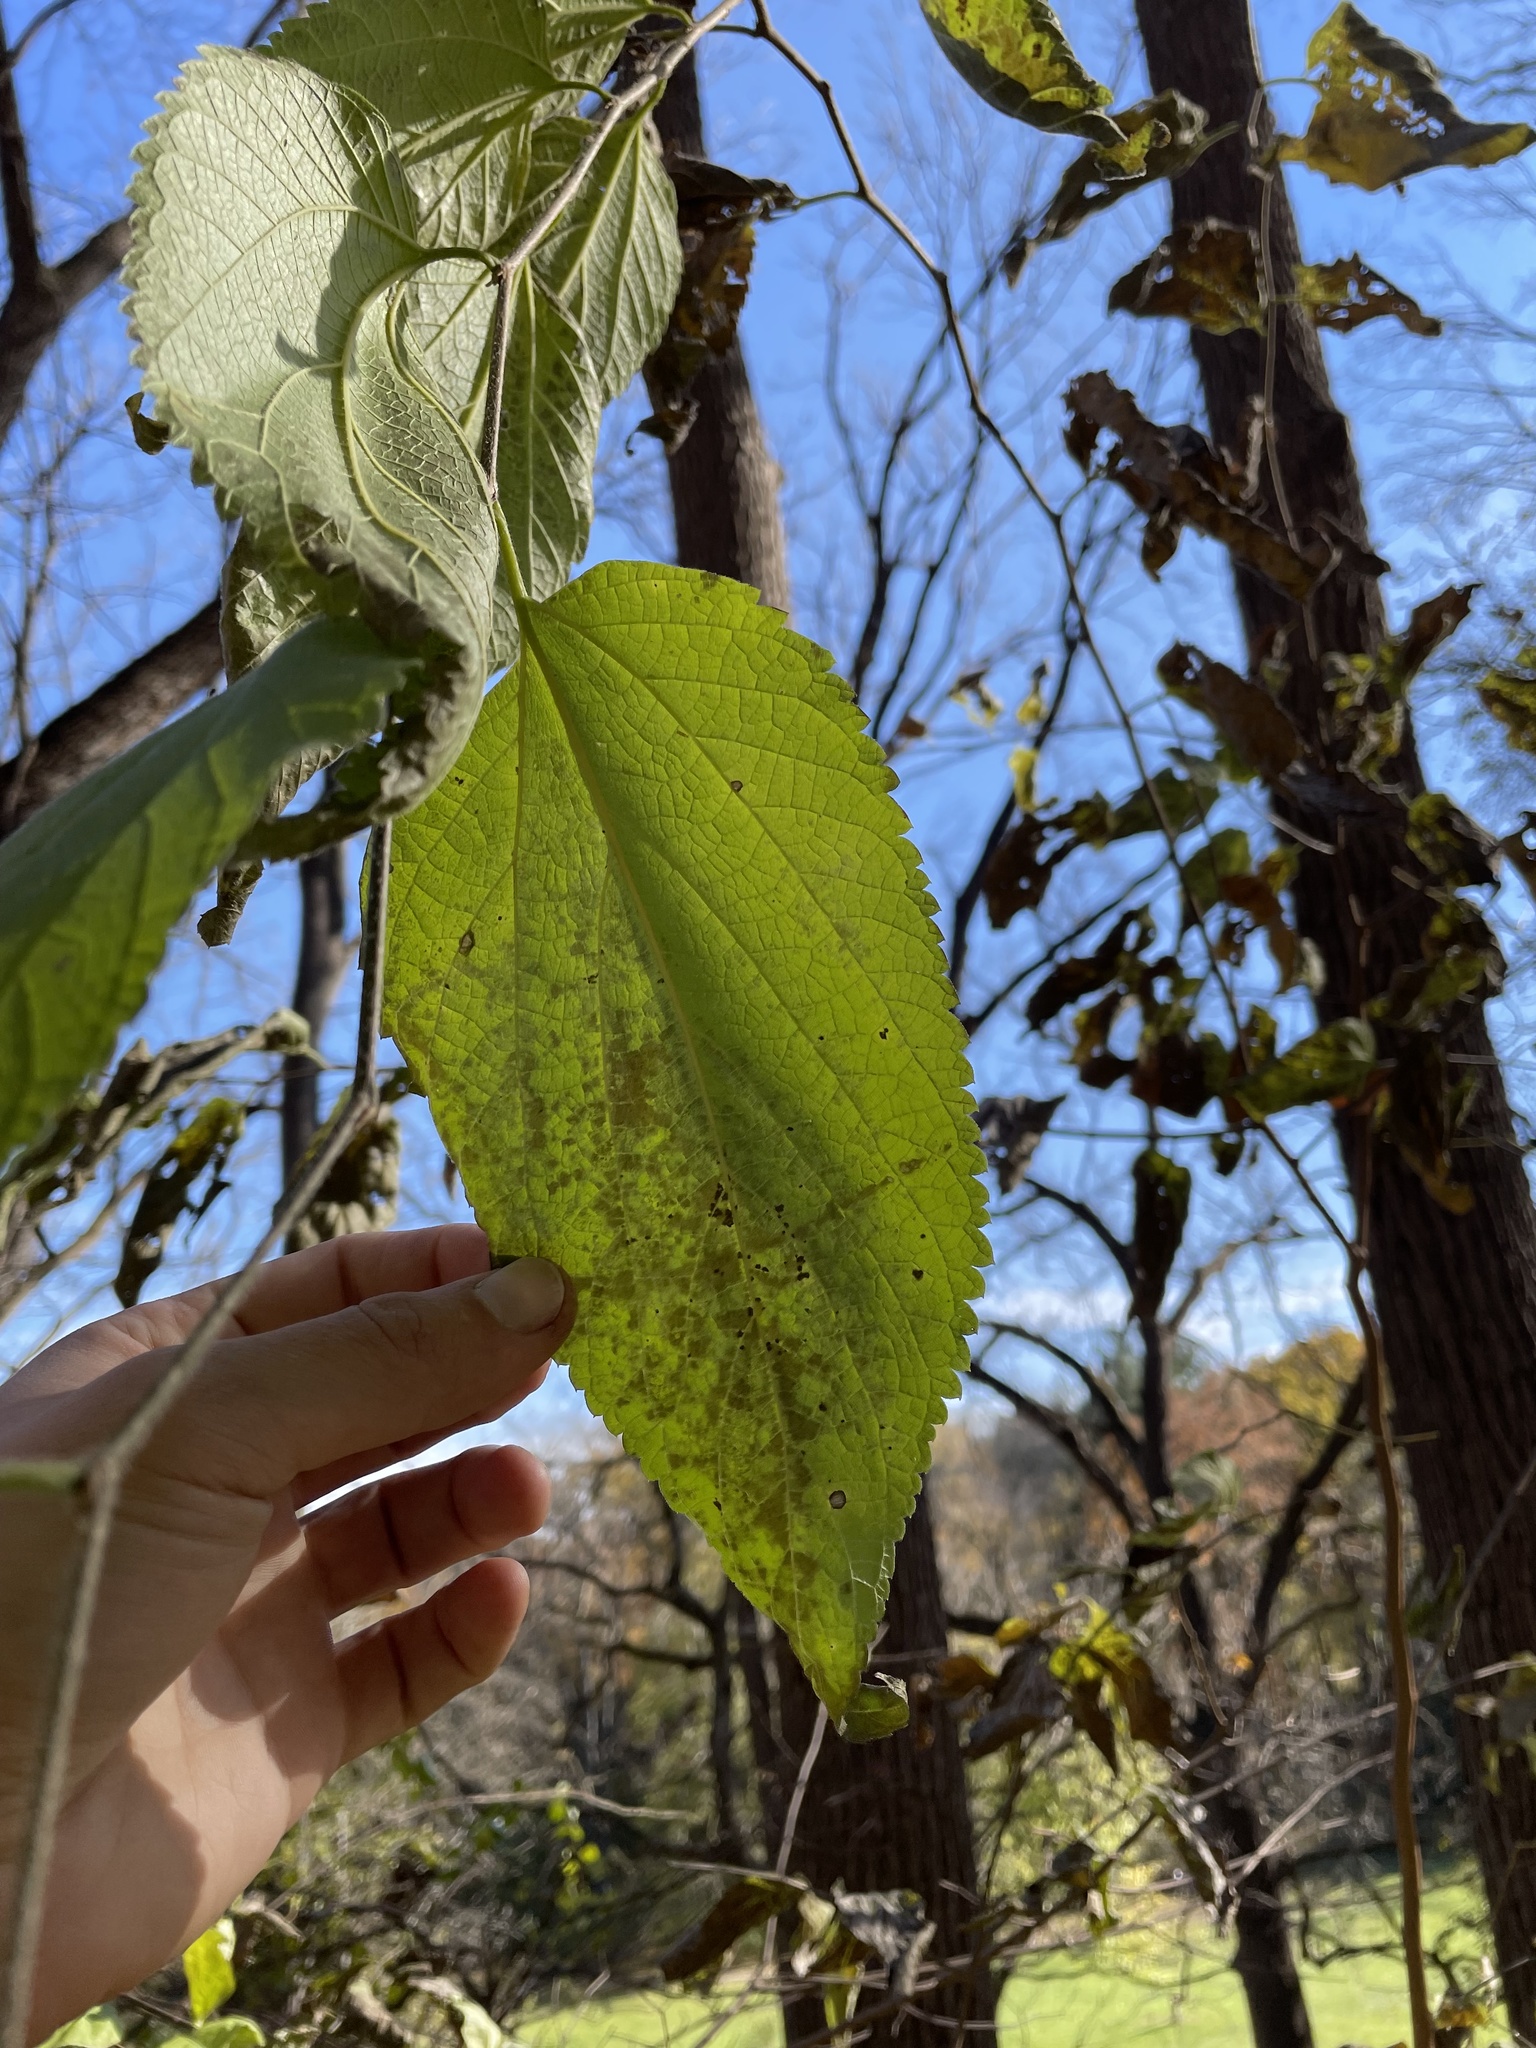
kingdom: Animalia
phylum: Arthropoda
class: Insecta
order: Hemiptera
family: Aphalaridae
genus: Pachypsylla
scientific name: Pachypsylla venusta
